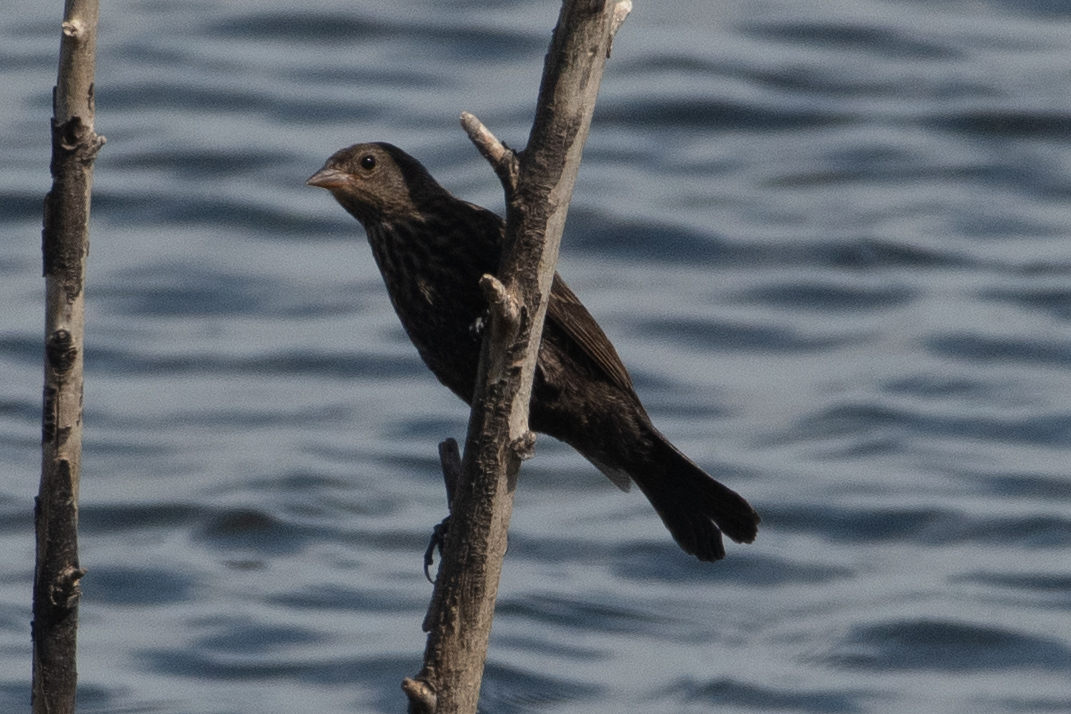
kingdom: Animalia
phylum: Chordata
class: Aves
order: Passeriformes
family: Icteridae
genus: Agelaius
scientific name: Agelaius phoeniceus
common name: Red-winged blackbird
